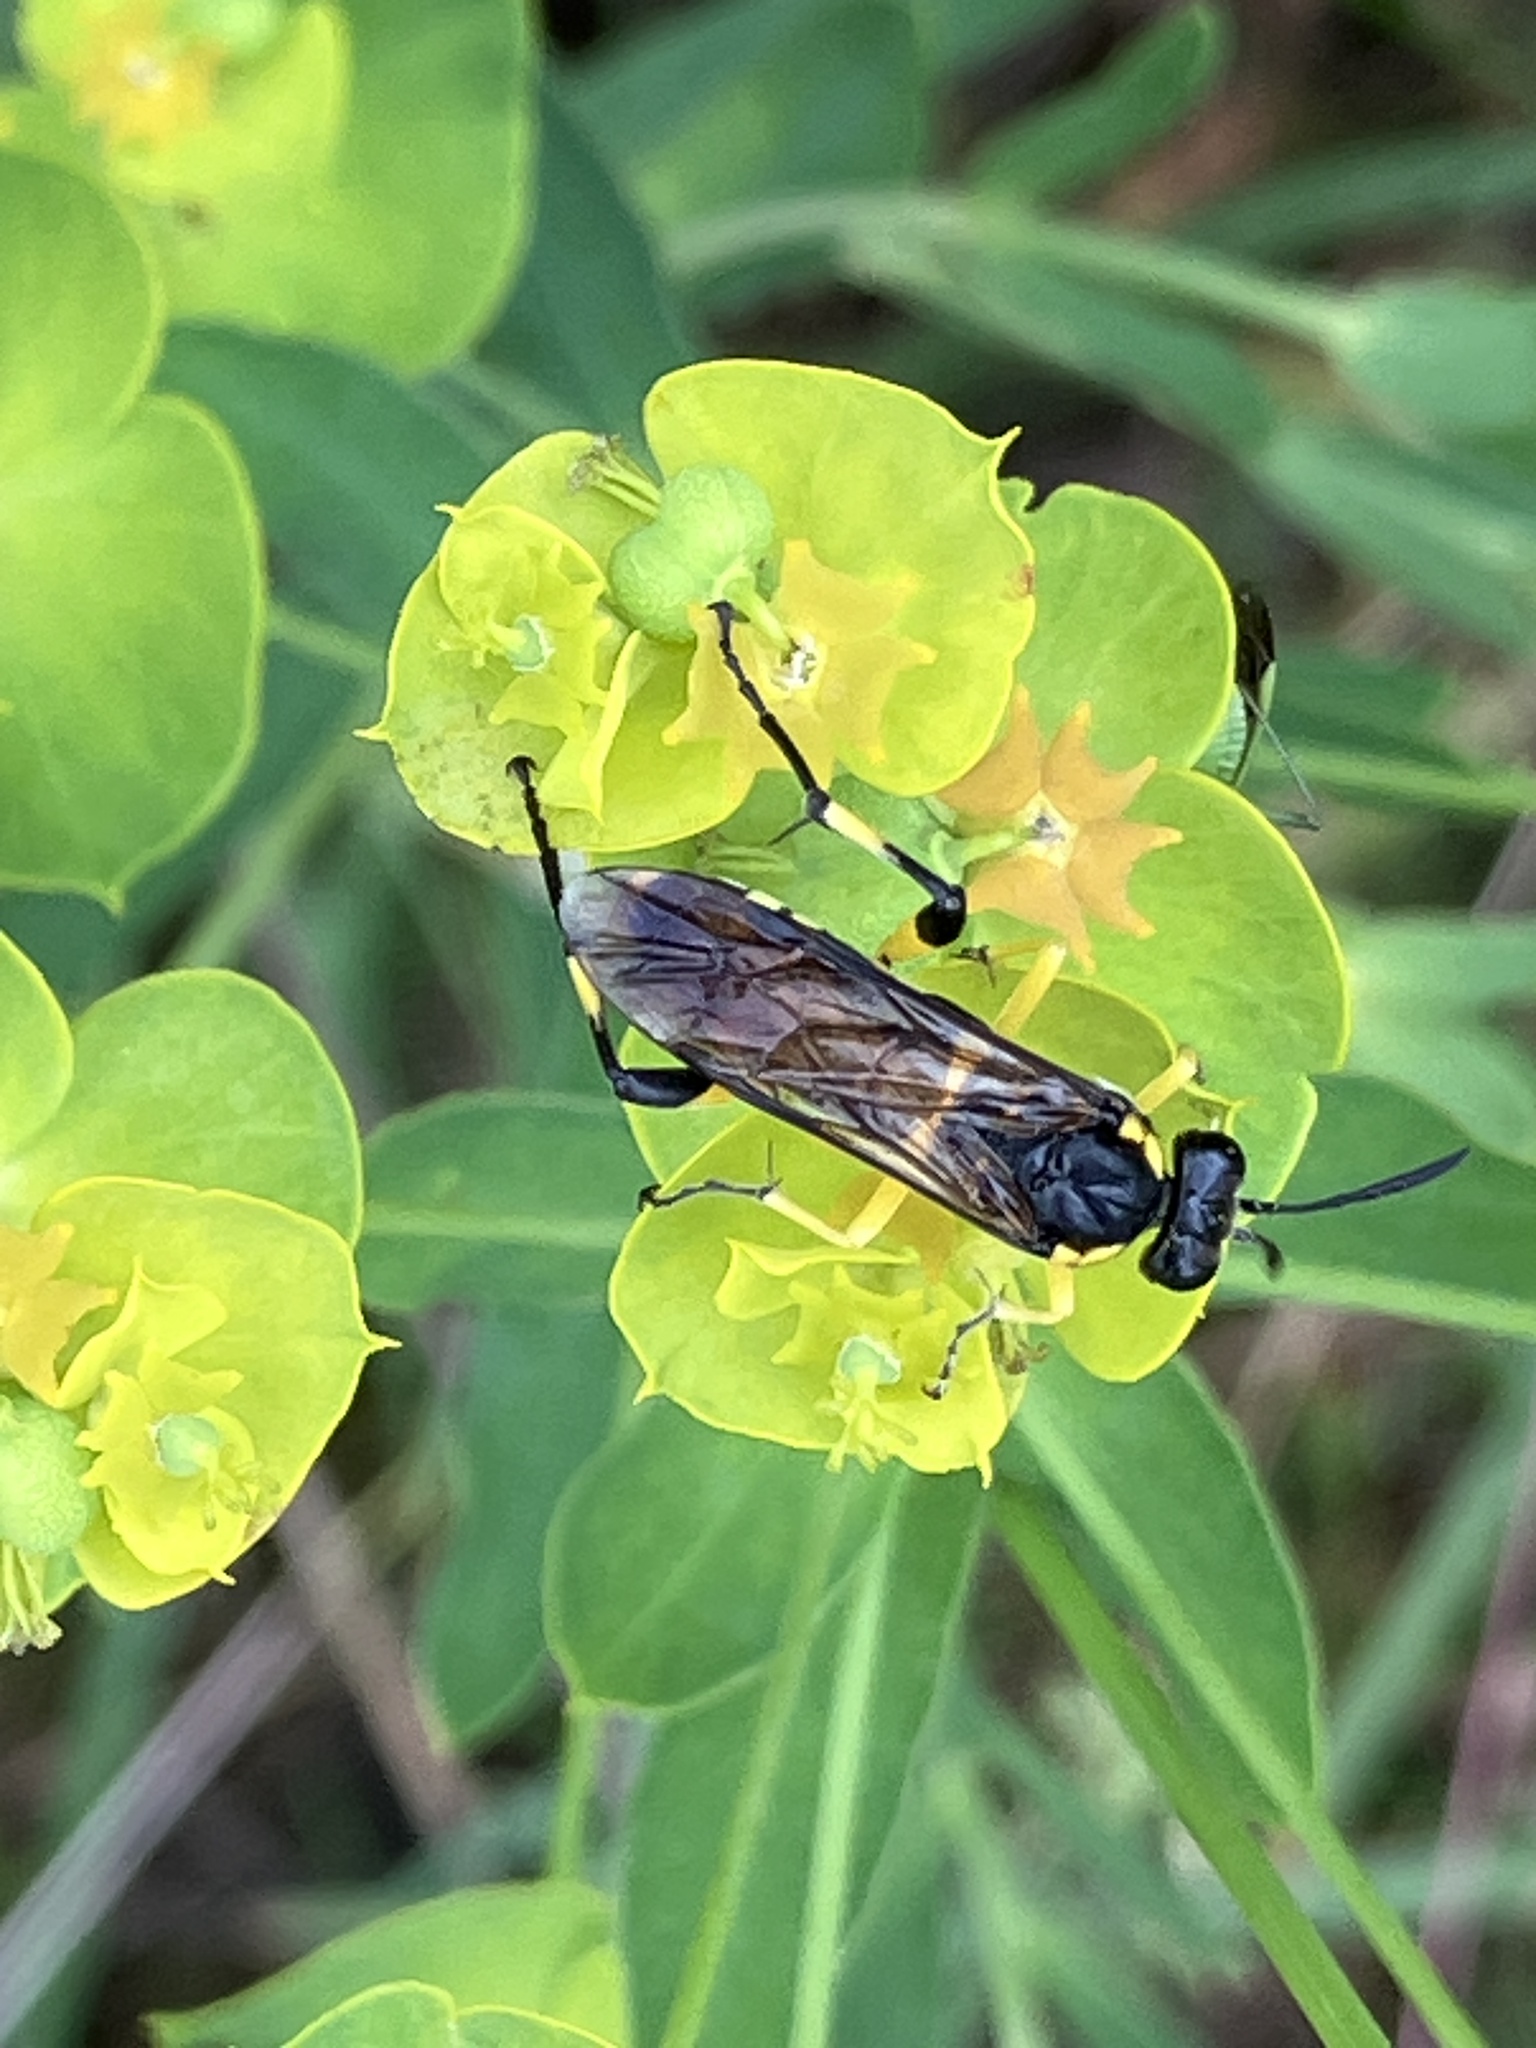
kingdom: Animalia
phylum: Arthropoda
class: Insecta
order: Hymenoptera
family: Tenthredinidae
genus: Macrophya
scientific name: Macrophya montana
